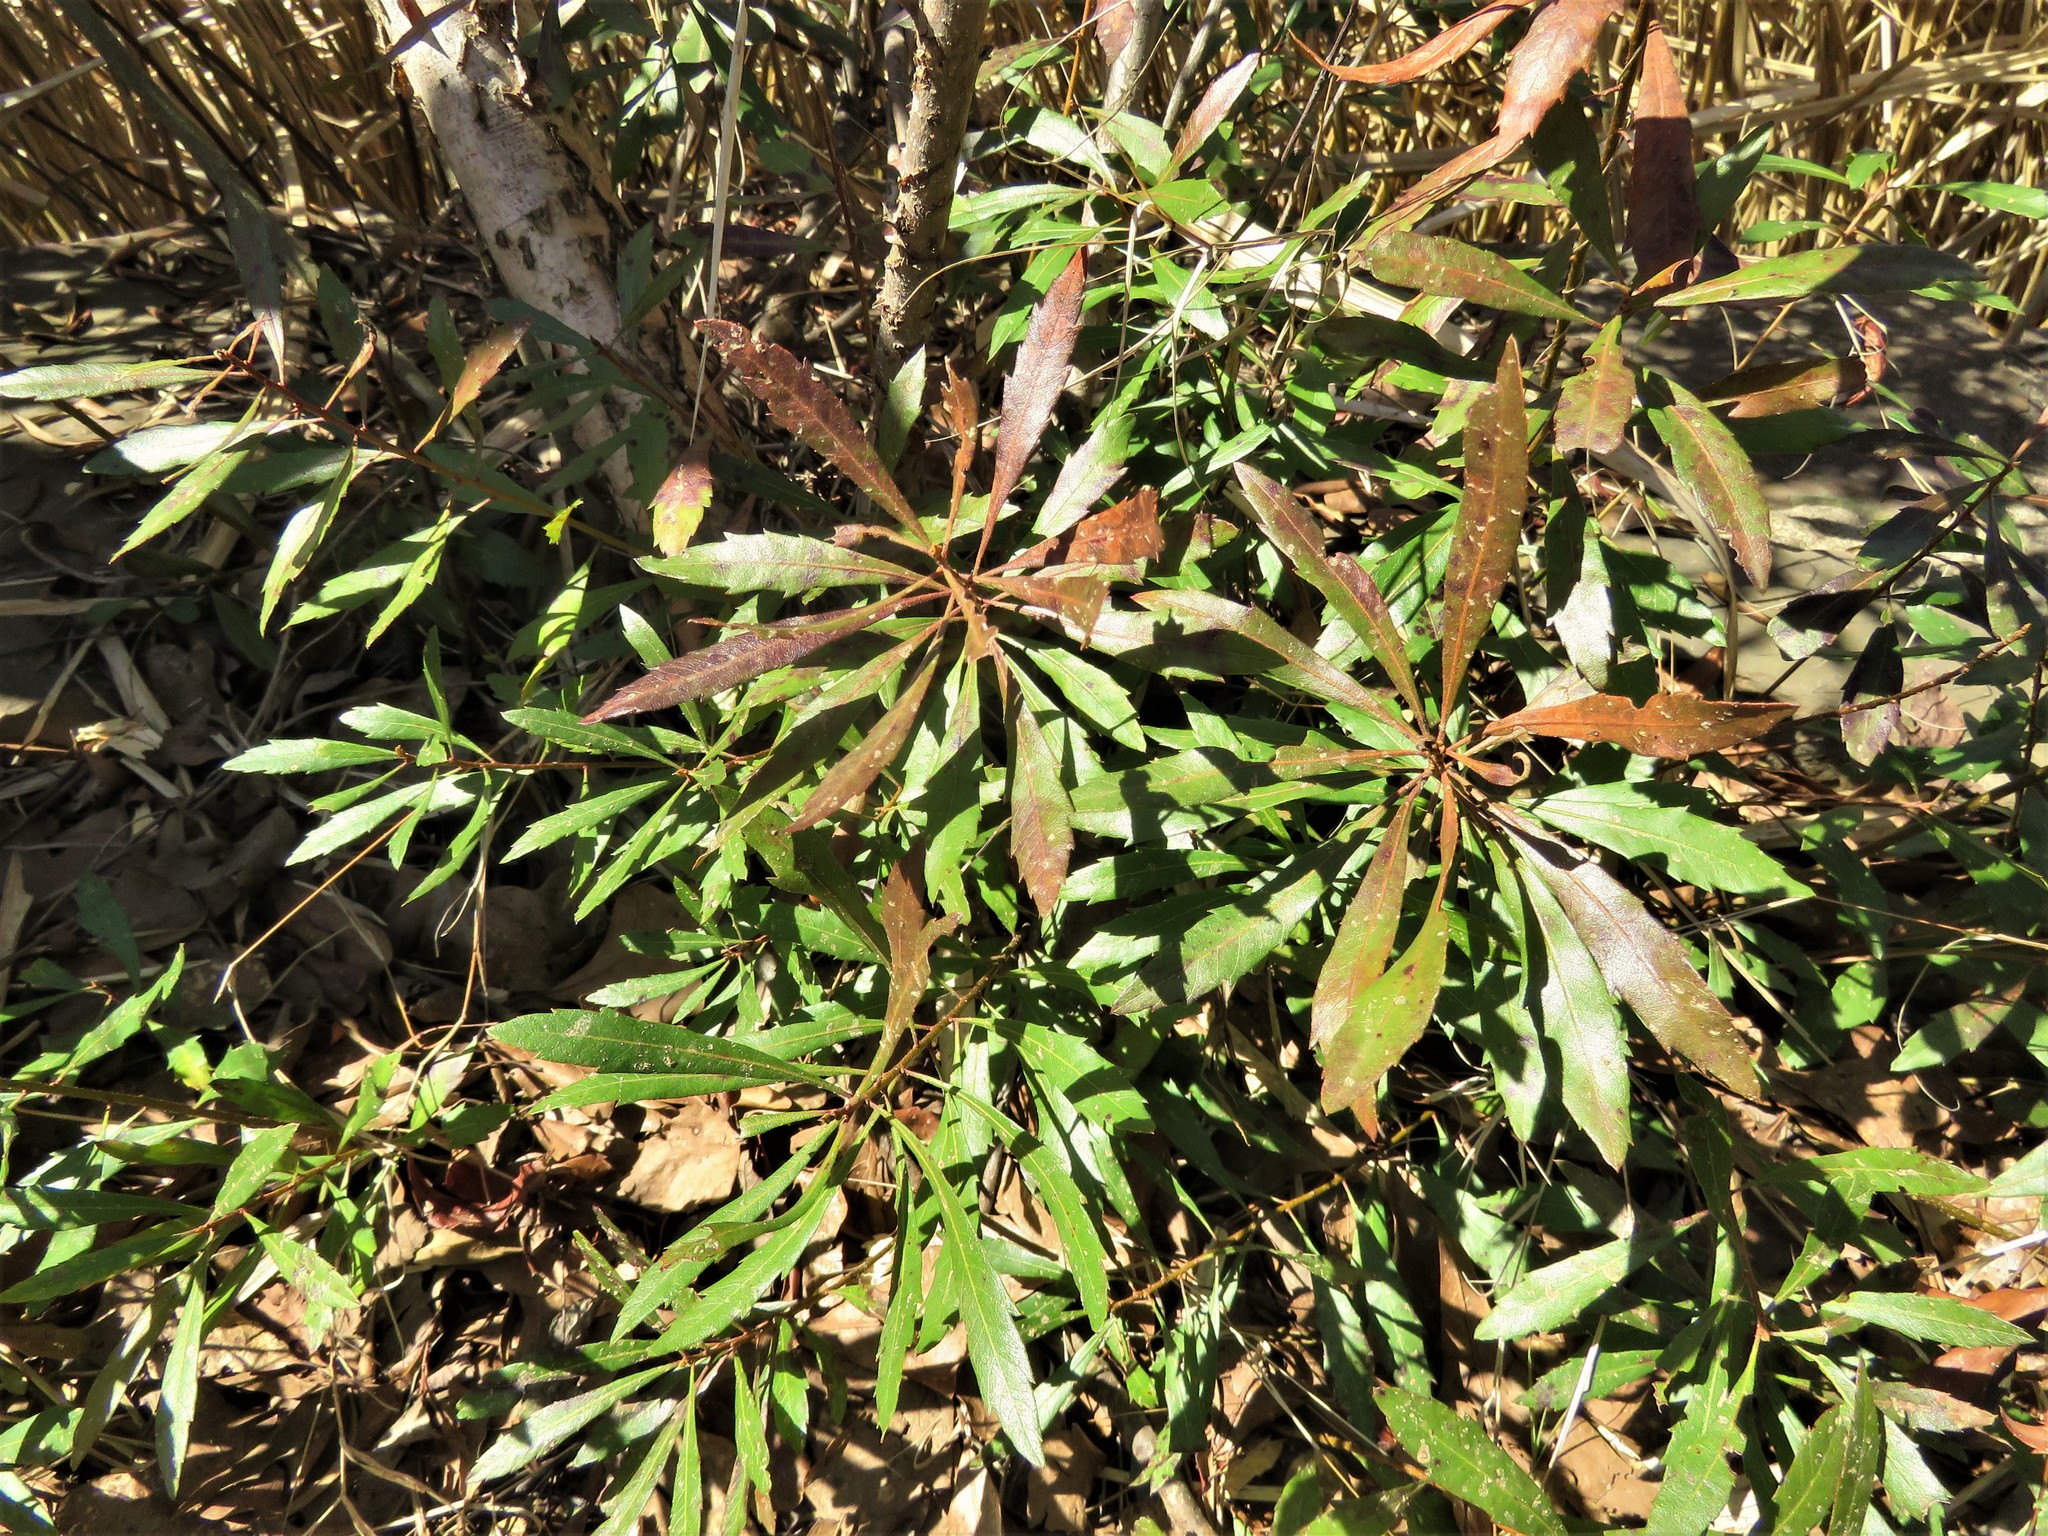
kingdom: Plantae
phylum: Tracheophyta
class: Magnoliopsida
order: Fagales
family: Myricaceae
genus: Morella
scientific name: Morella cerifera
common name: Wax myrtle
